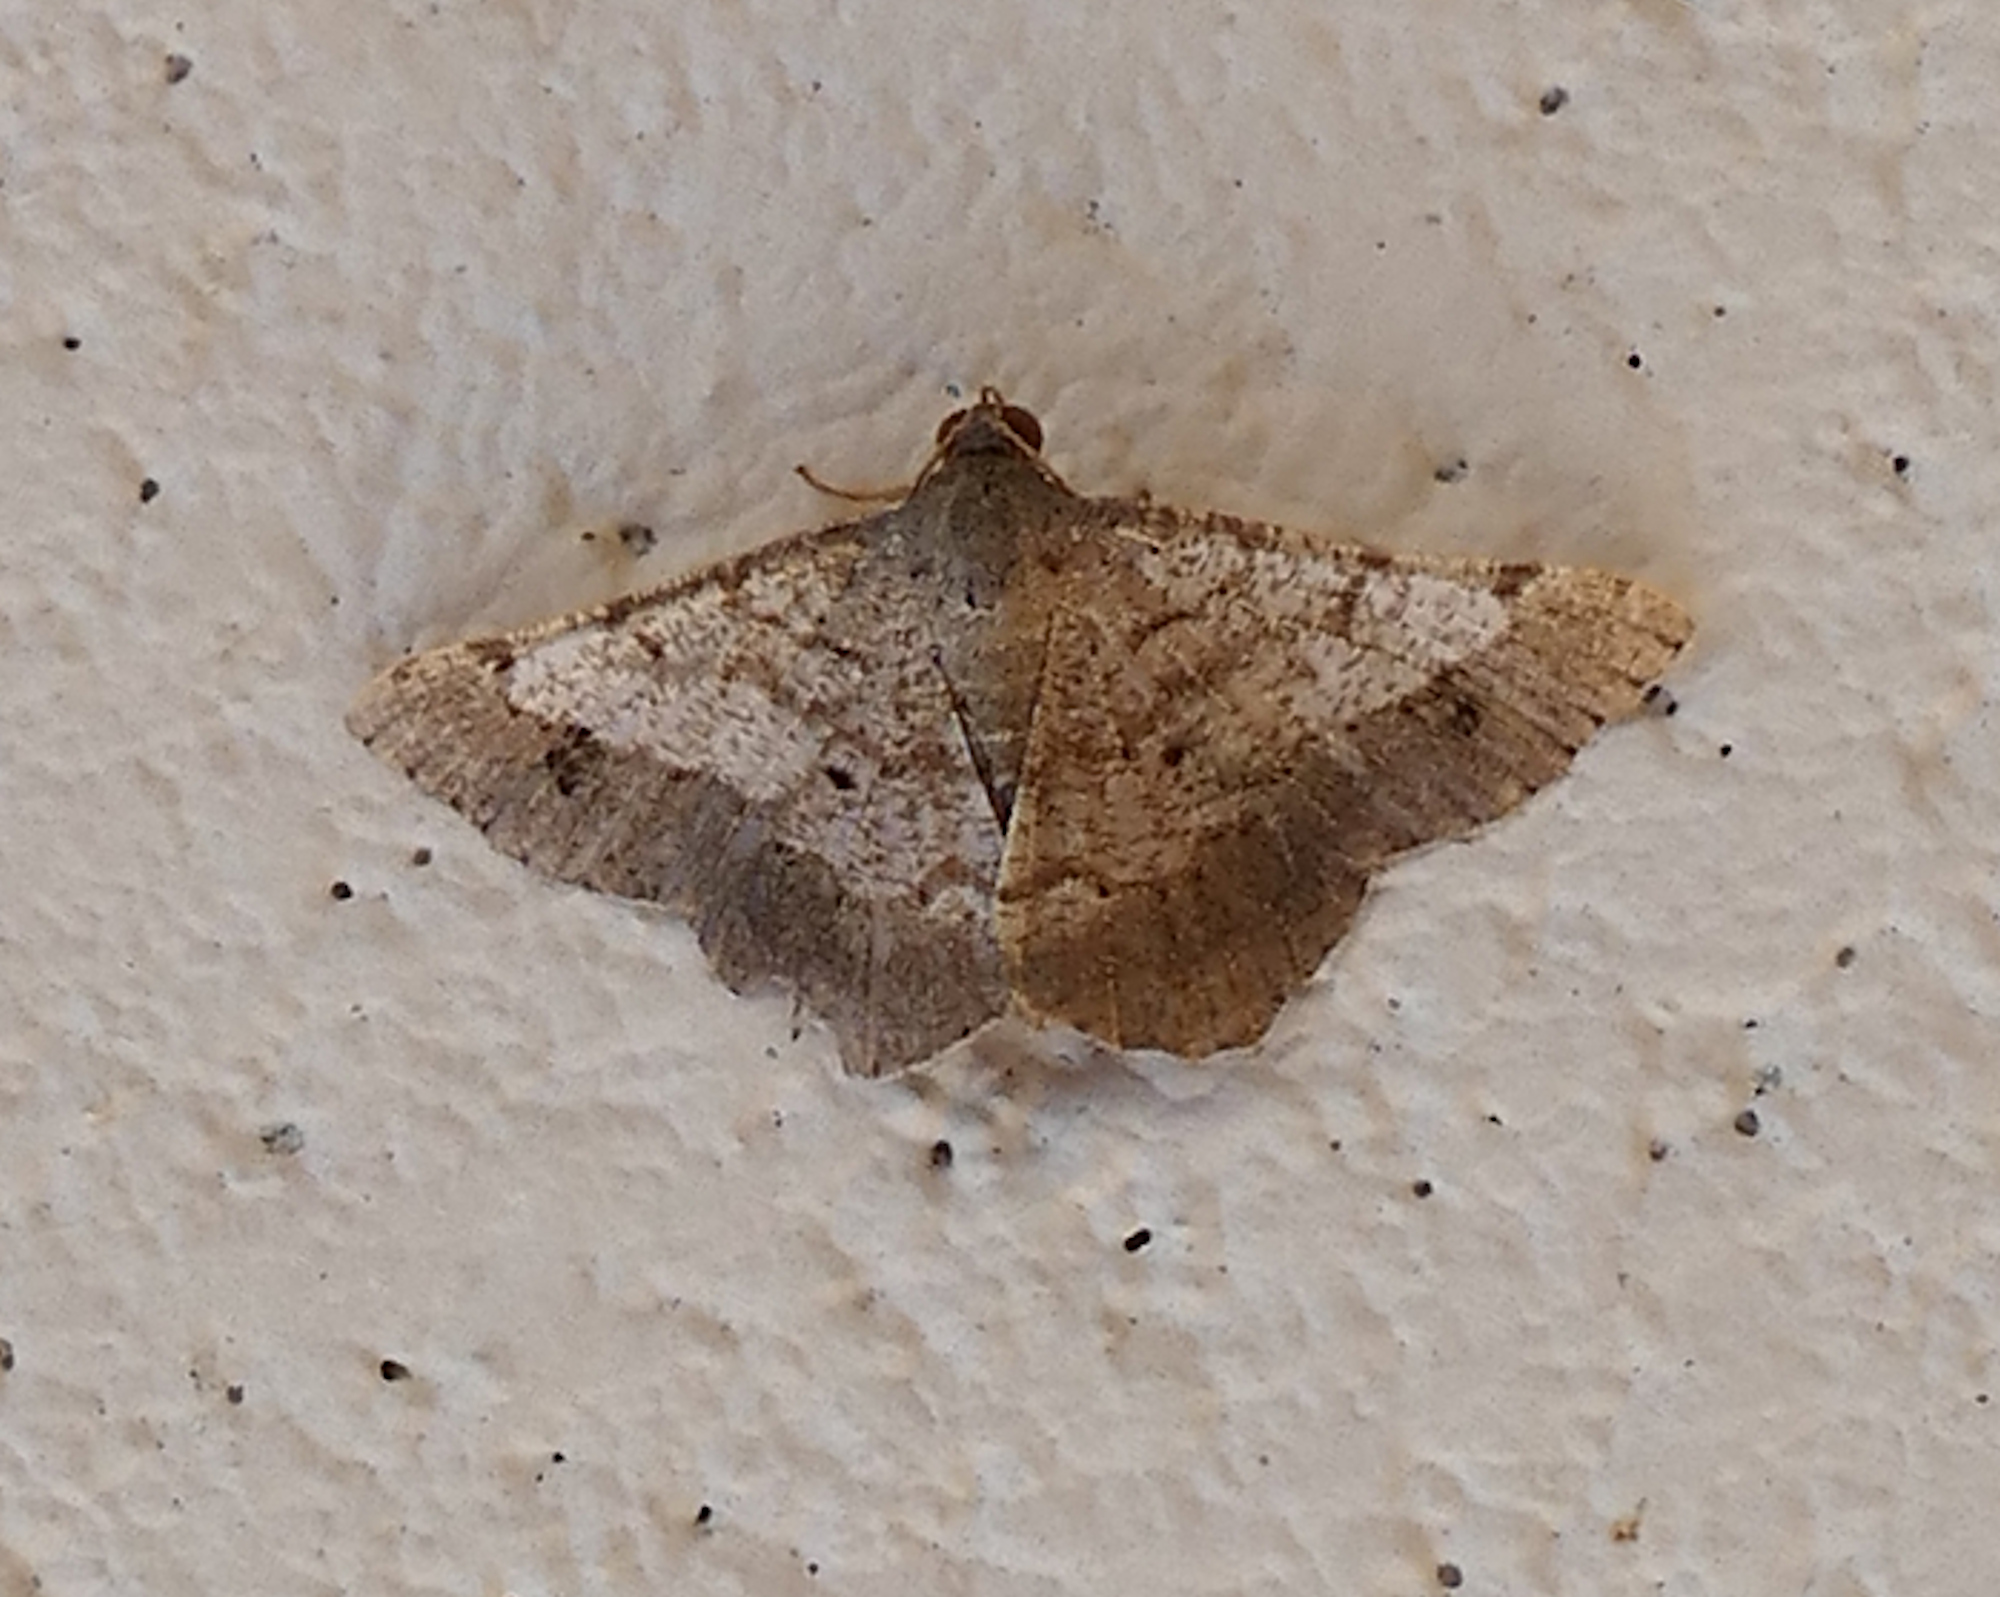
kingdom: Animalia
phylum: Arthropoda
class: Insecta
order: Lepidoptera
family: Geometridae
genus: Macaria
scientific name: Macaria abydata
